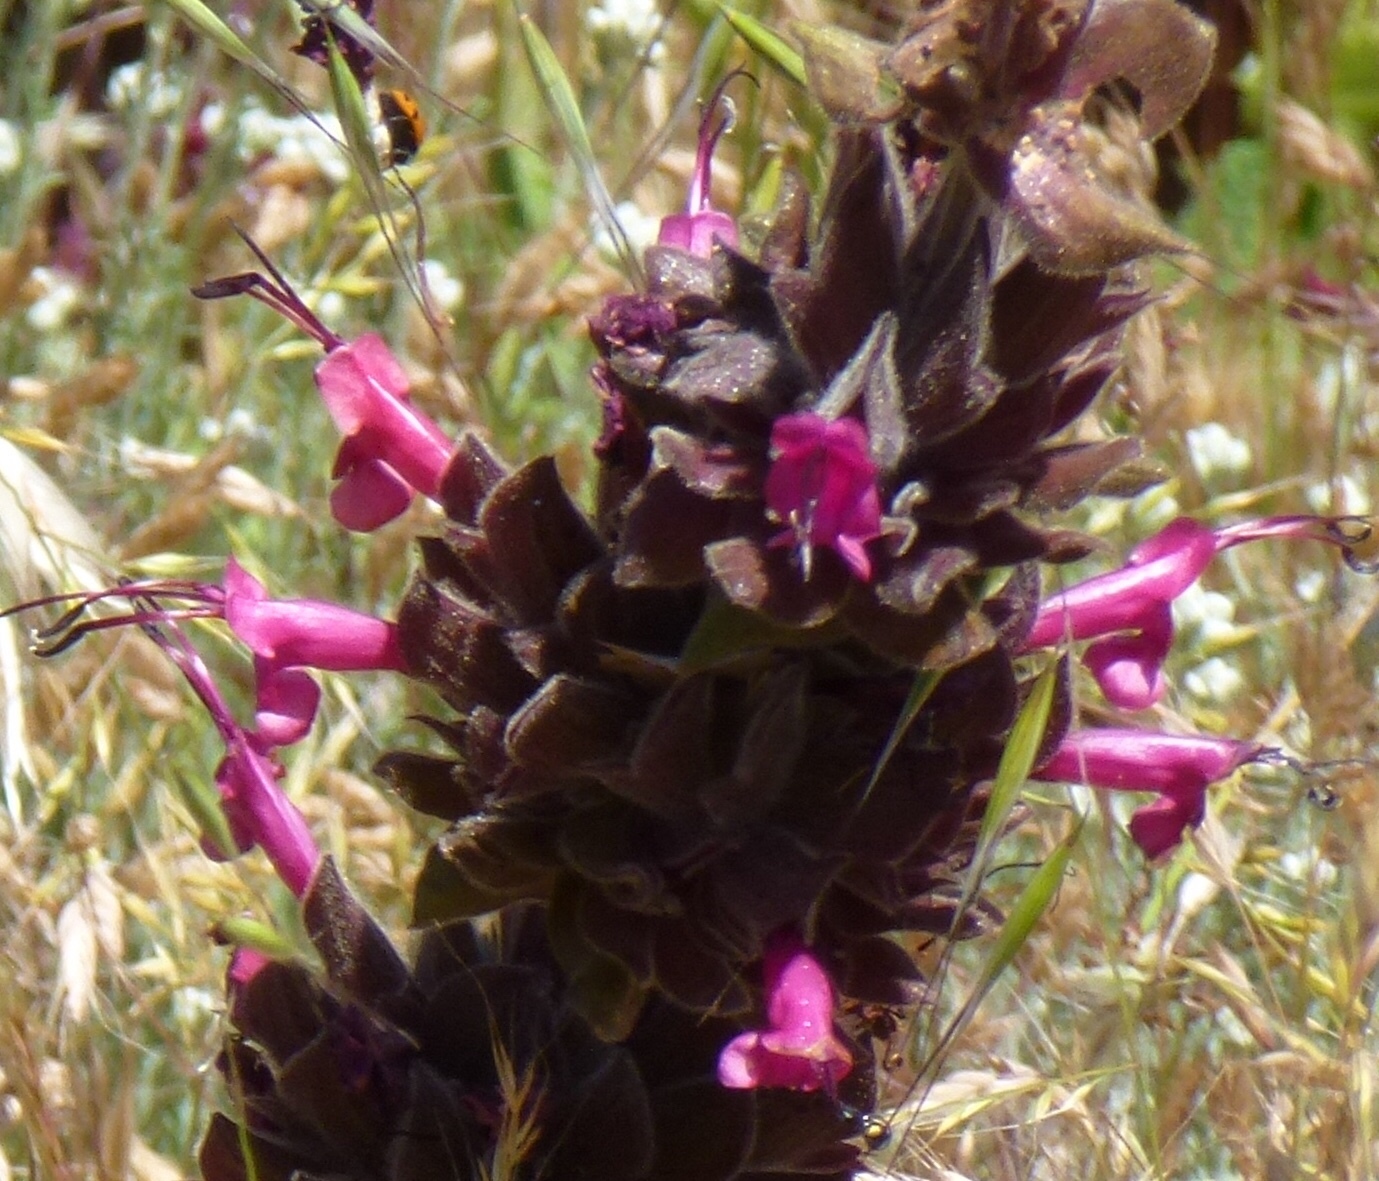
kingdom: Plantae
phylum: Tracheophyta
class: Magnoliopsida
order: Lamiales
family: Lamiaceae
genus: Salvia
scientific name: Salvia spathacea
